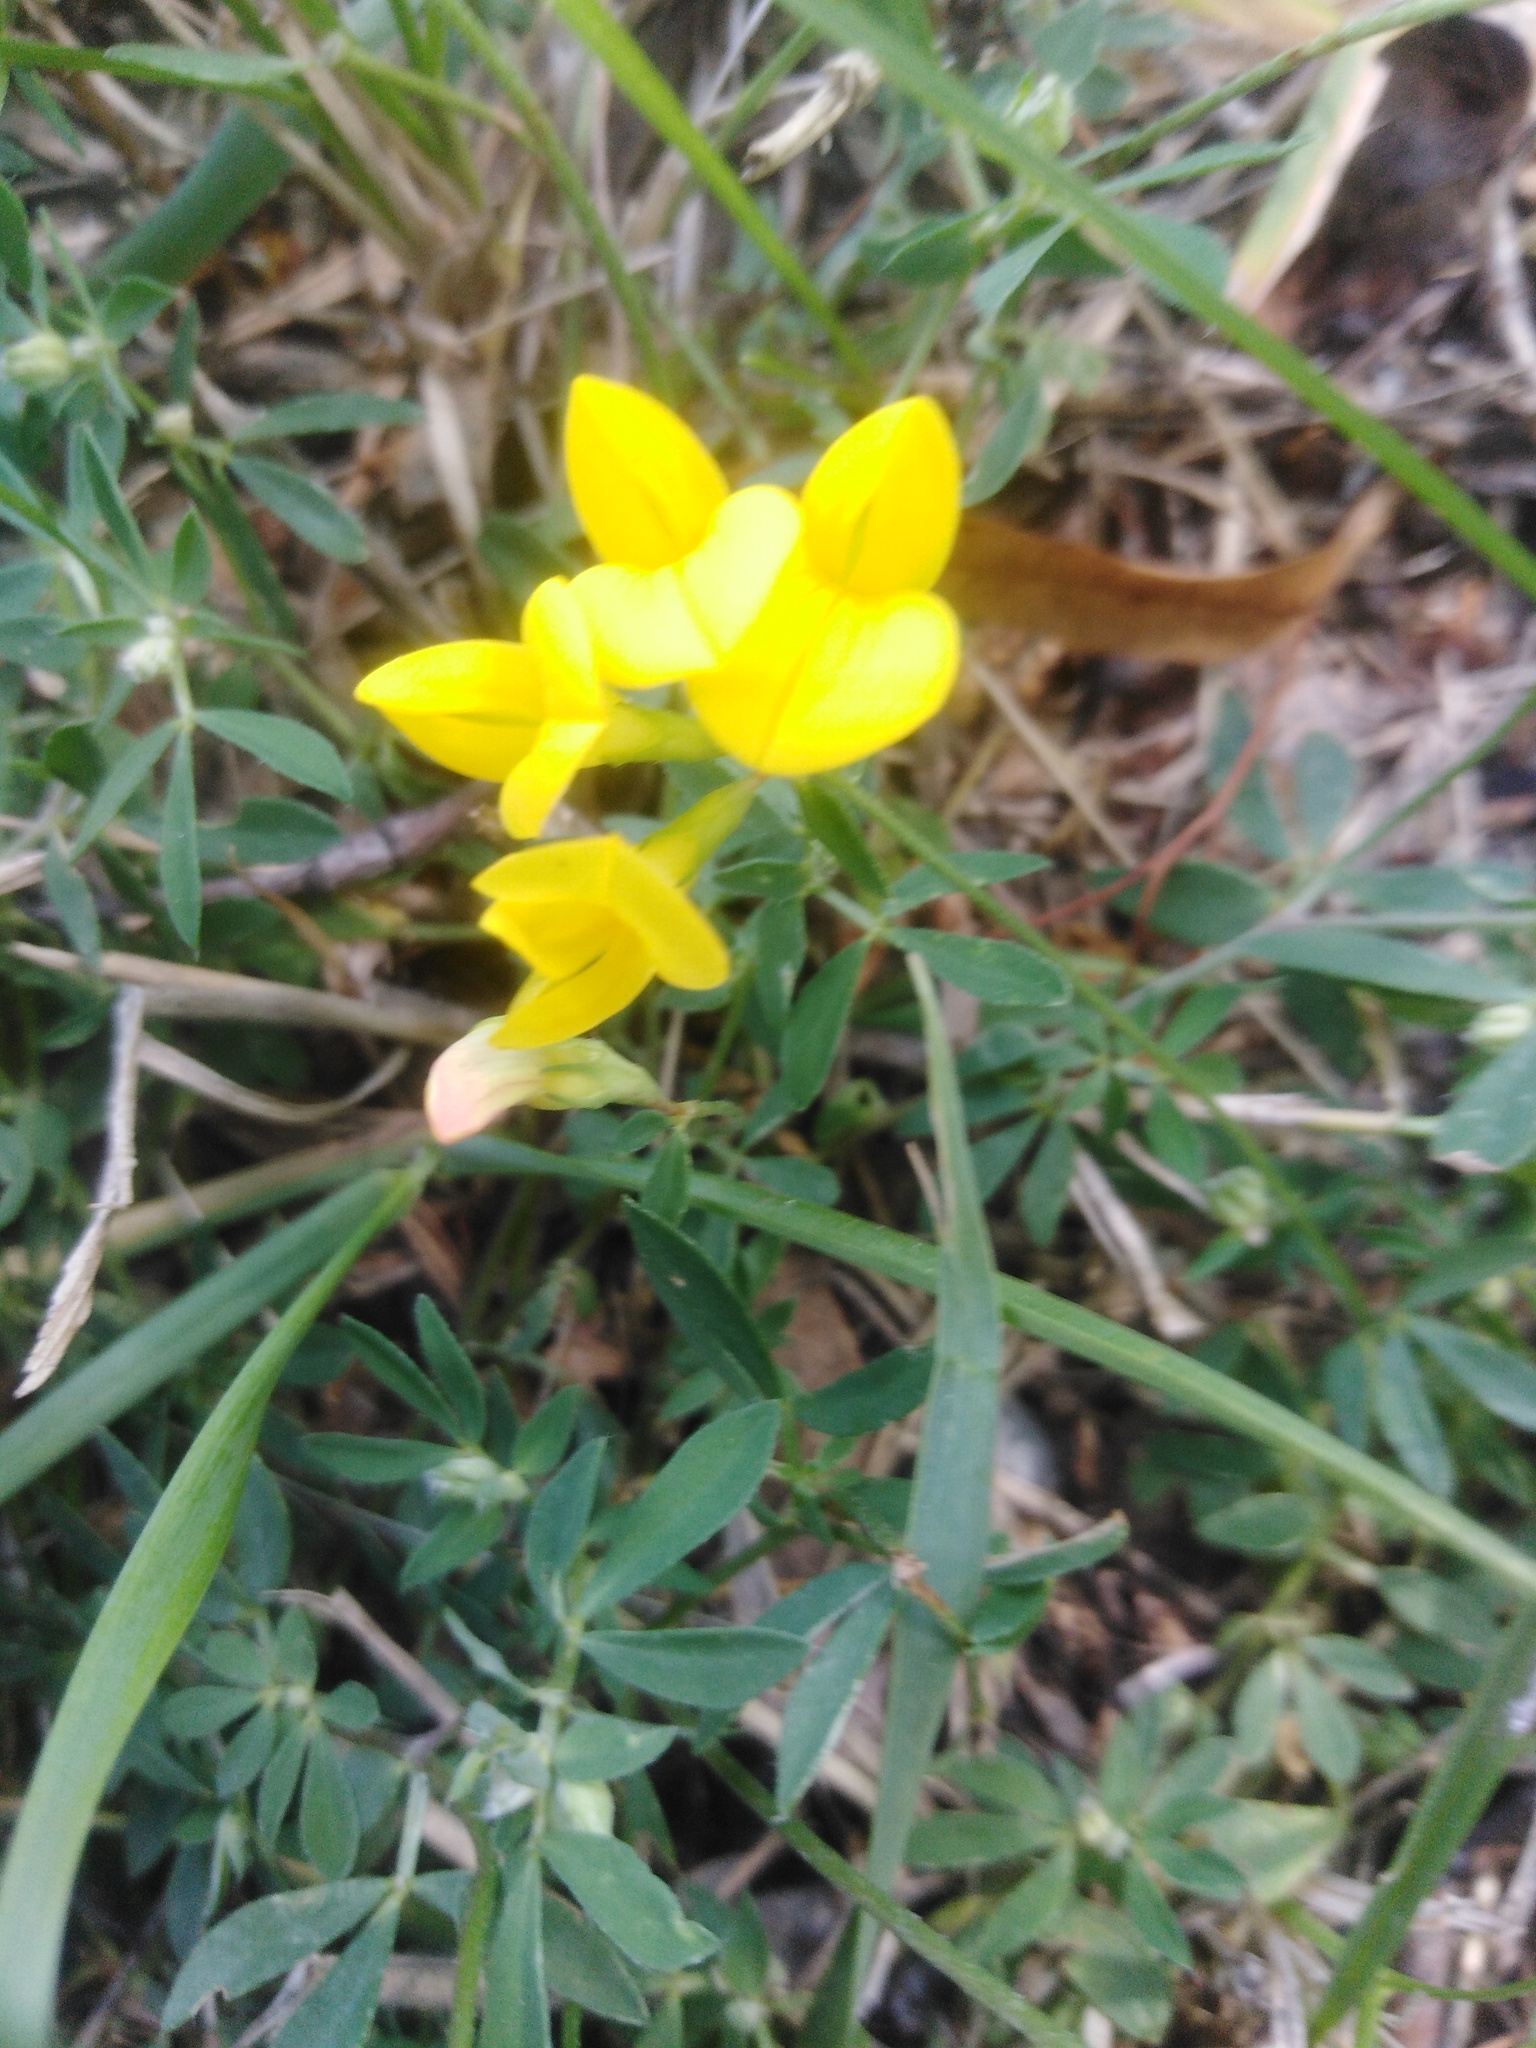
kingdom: Plantae
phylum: Tracheophyta
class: Magnoliopsida
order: Fabales
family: Fabaceae
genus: Lotus
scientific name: Lotus corniculatus
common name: Common bird's-foot-trefoil
